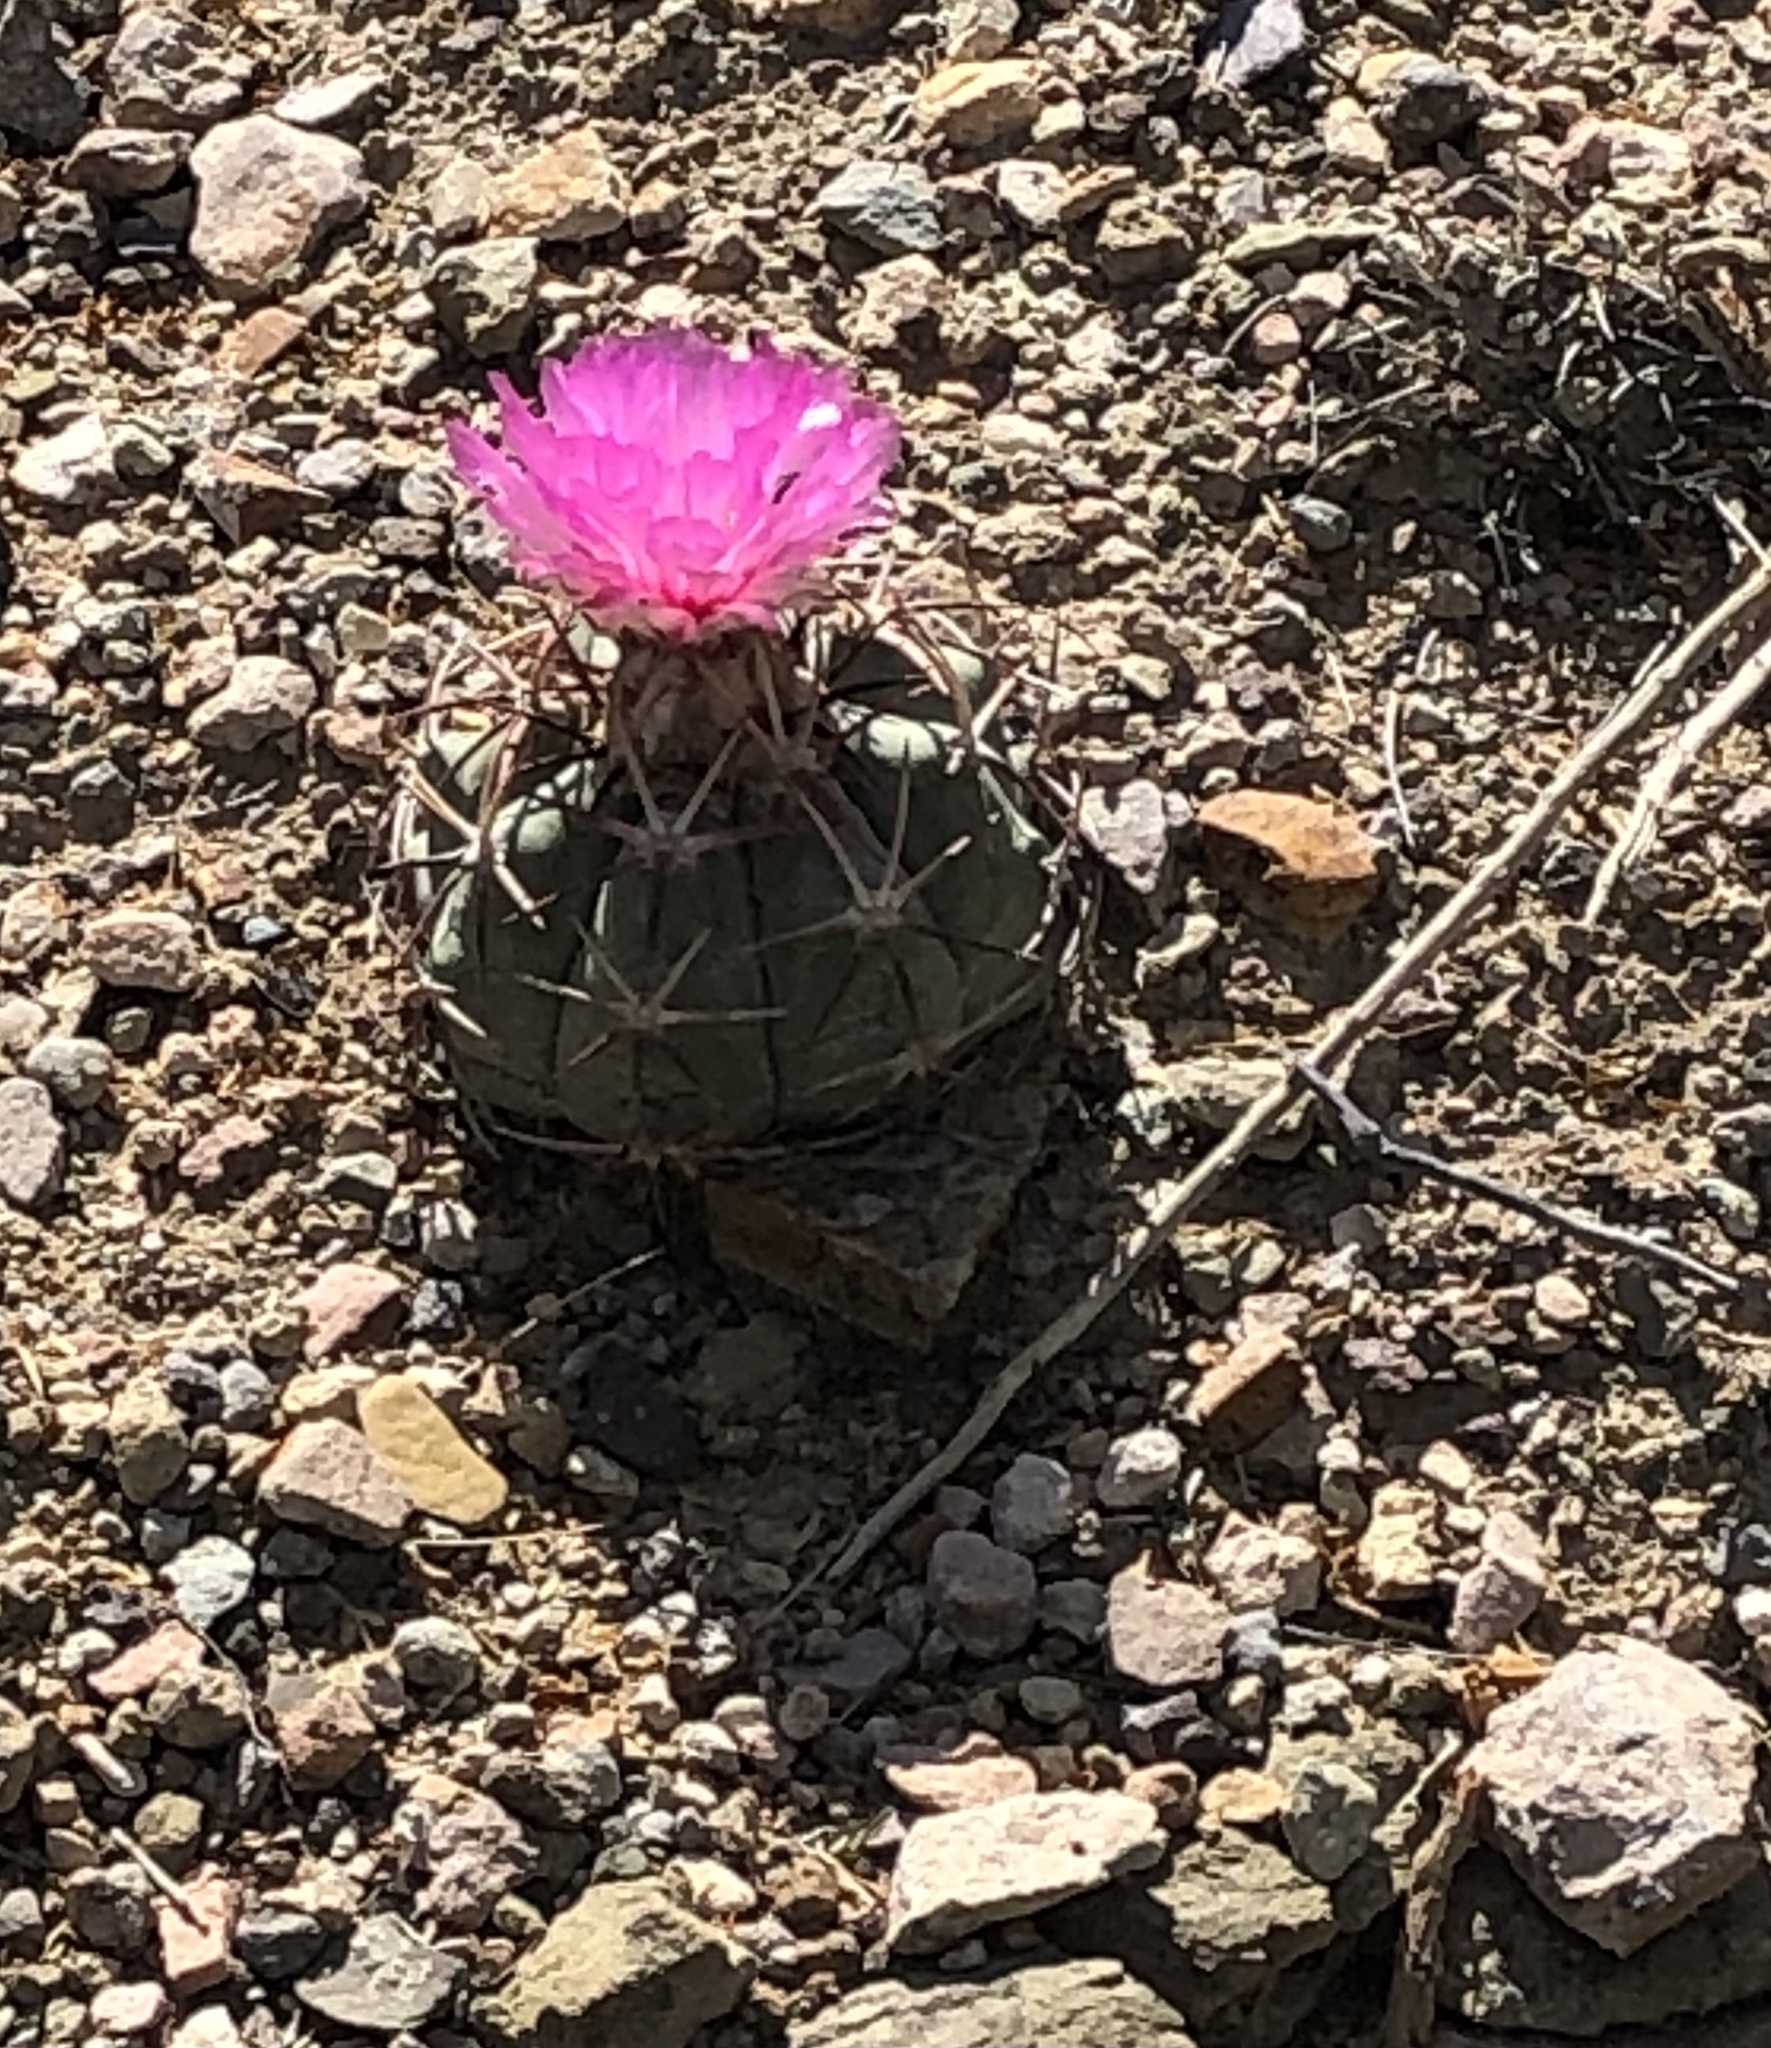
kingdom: Plantae
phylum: Tracheophyta
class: Magnoliopsida
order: Caryophyllales
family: Cactaceae
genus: Echinocactus
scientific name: Echinocactus horizonthalonius
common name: Devilshead
